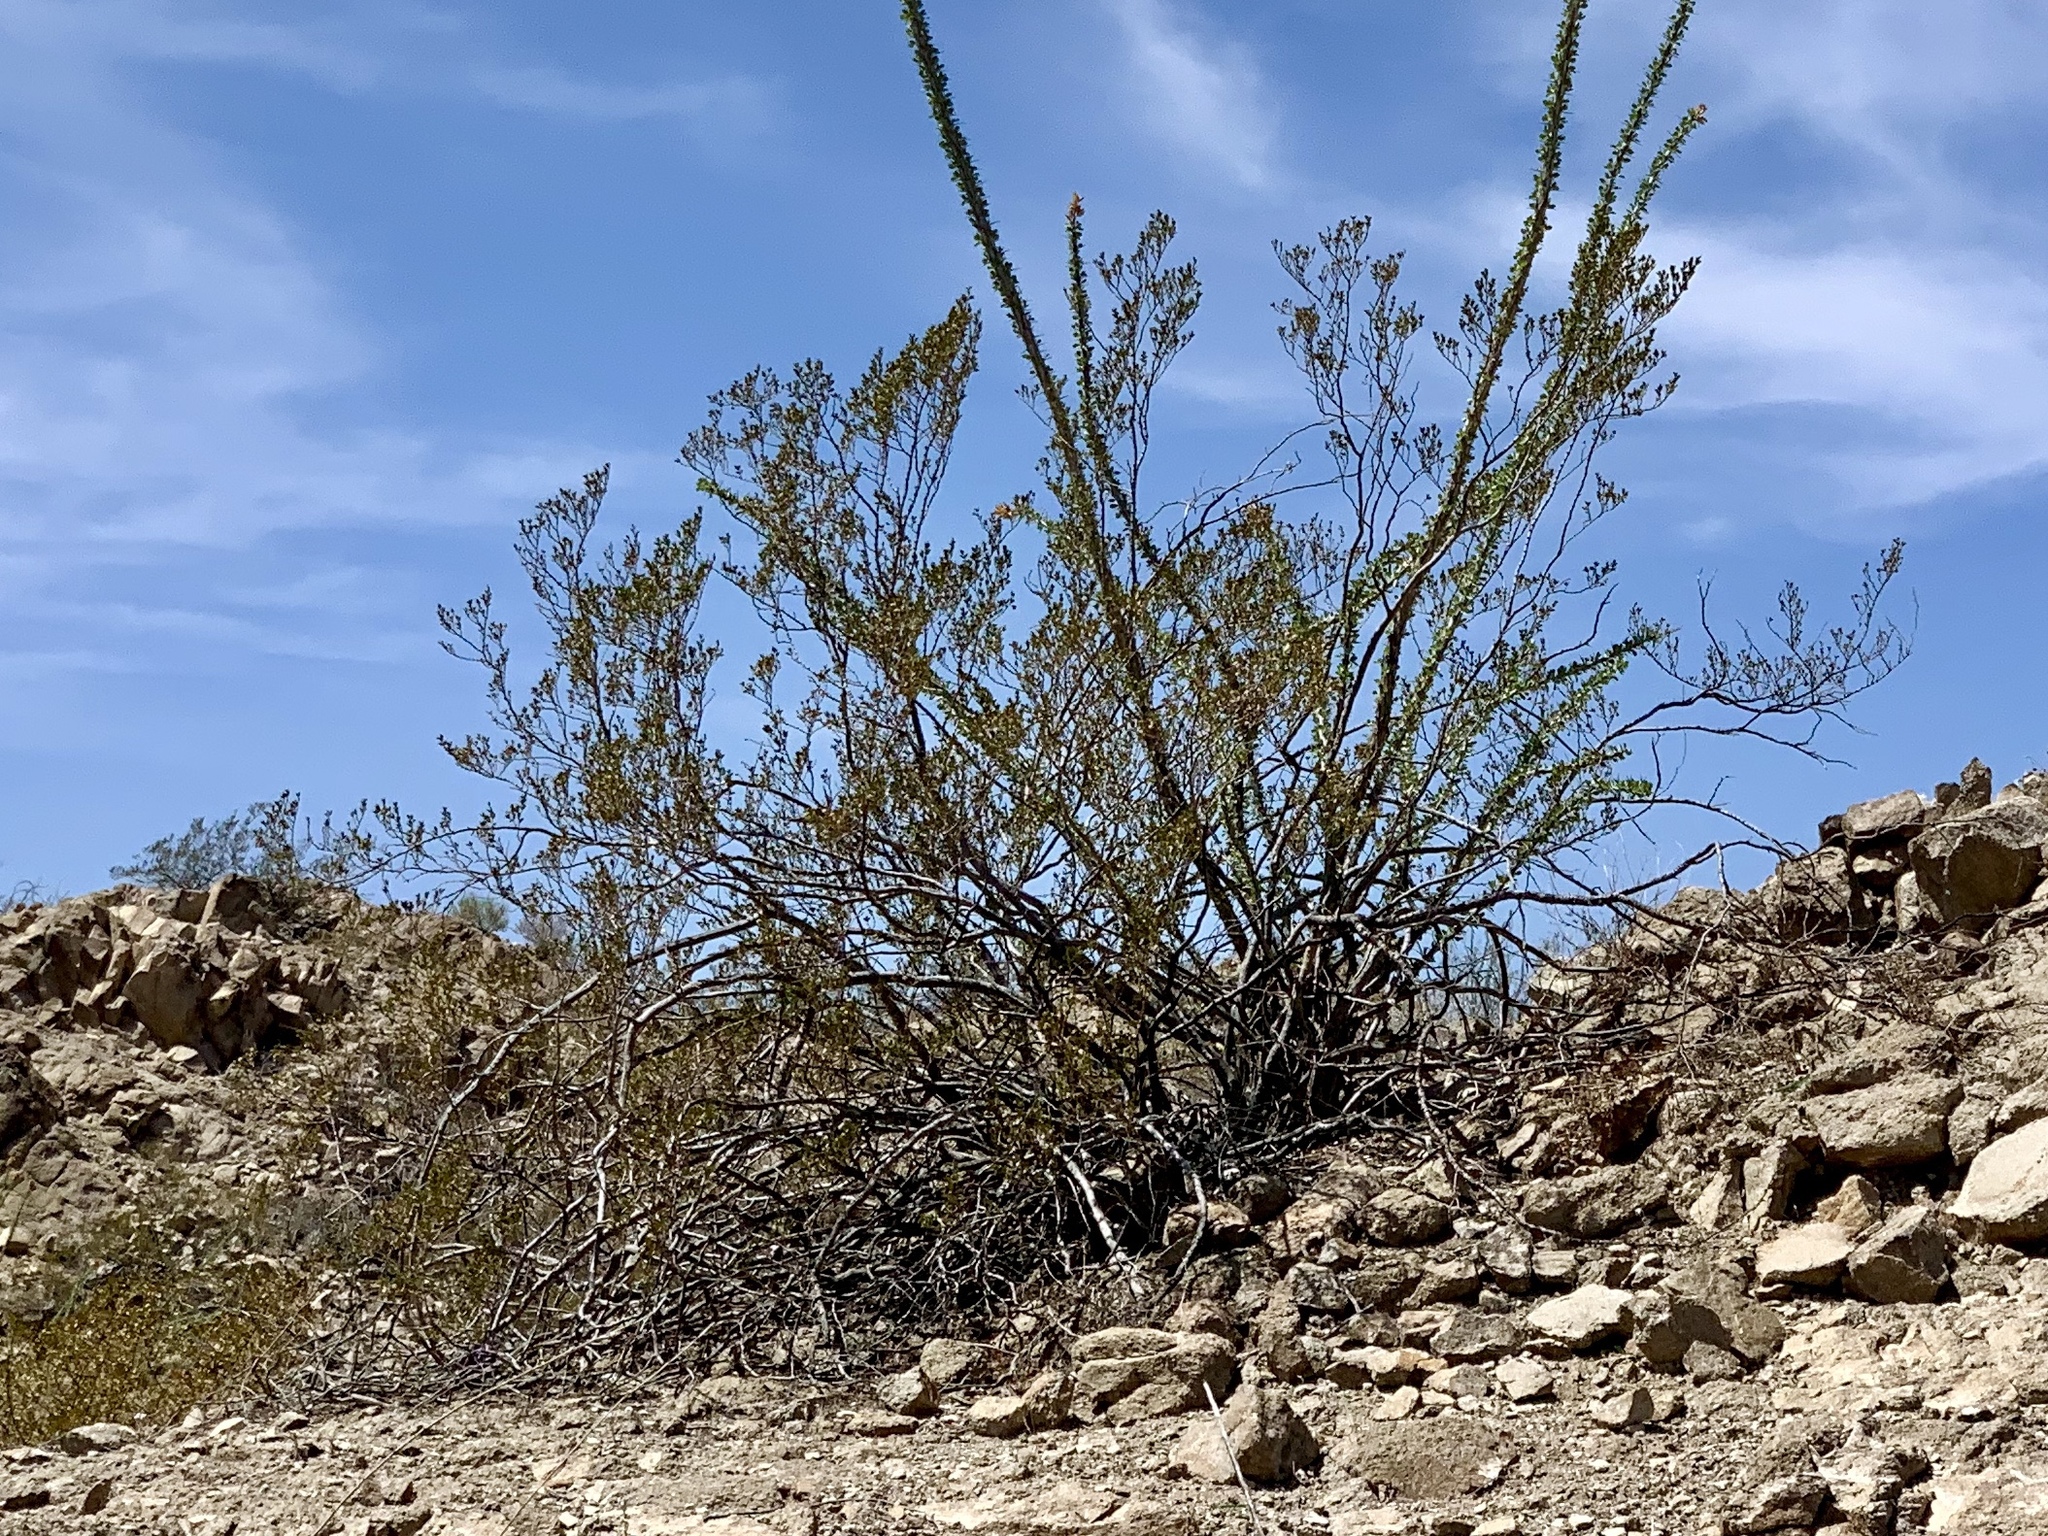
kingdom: Plantae
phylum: Tracheophyta
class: Magnoliopsida
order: Zygophyllales
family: Zygophyllaceae
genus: Larrea
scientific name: Larrea tridentata
